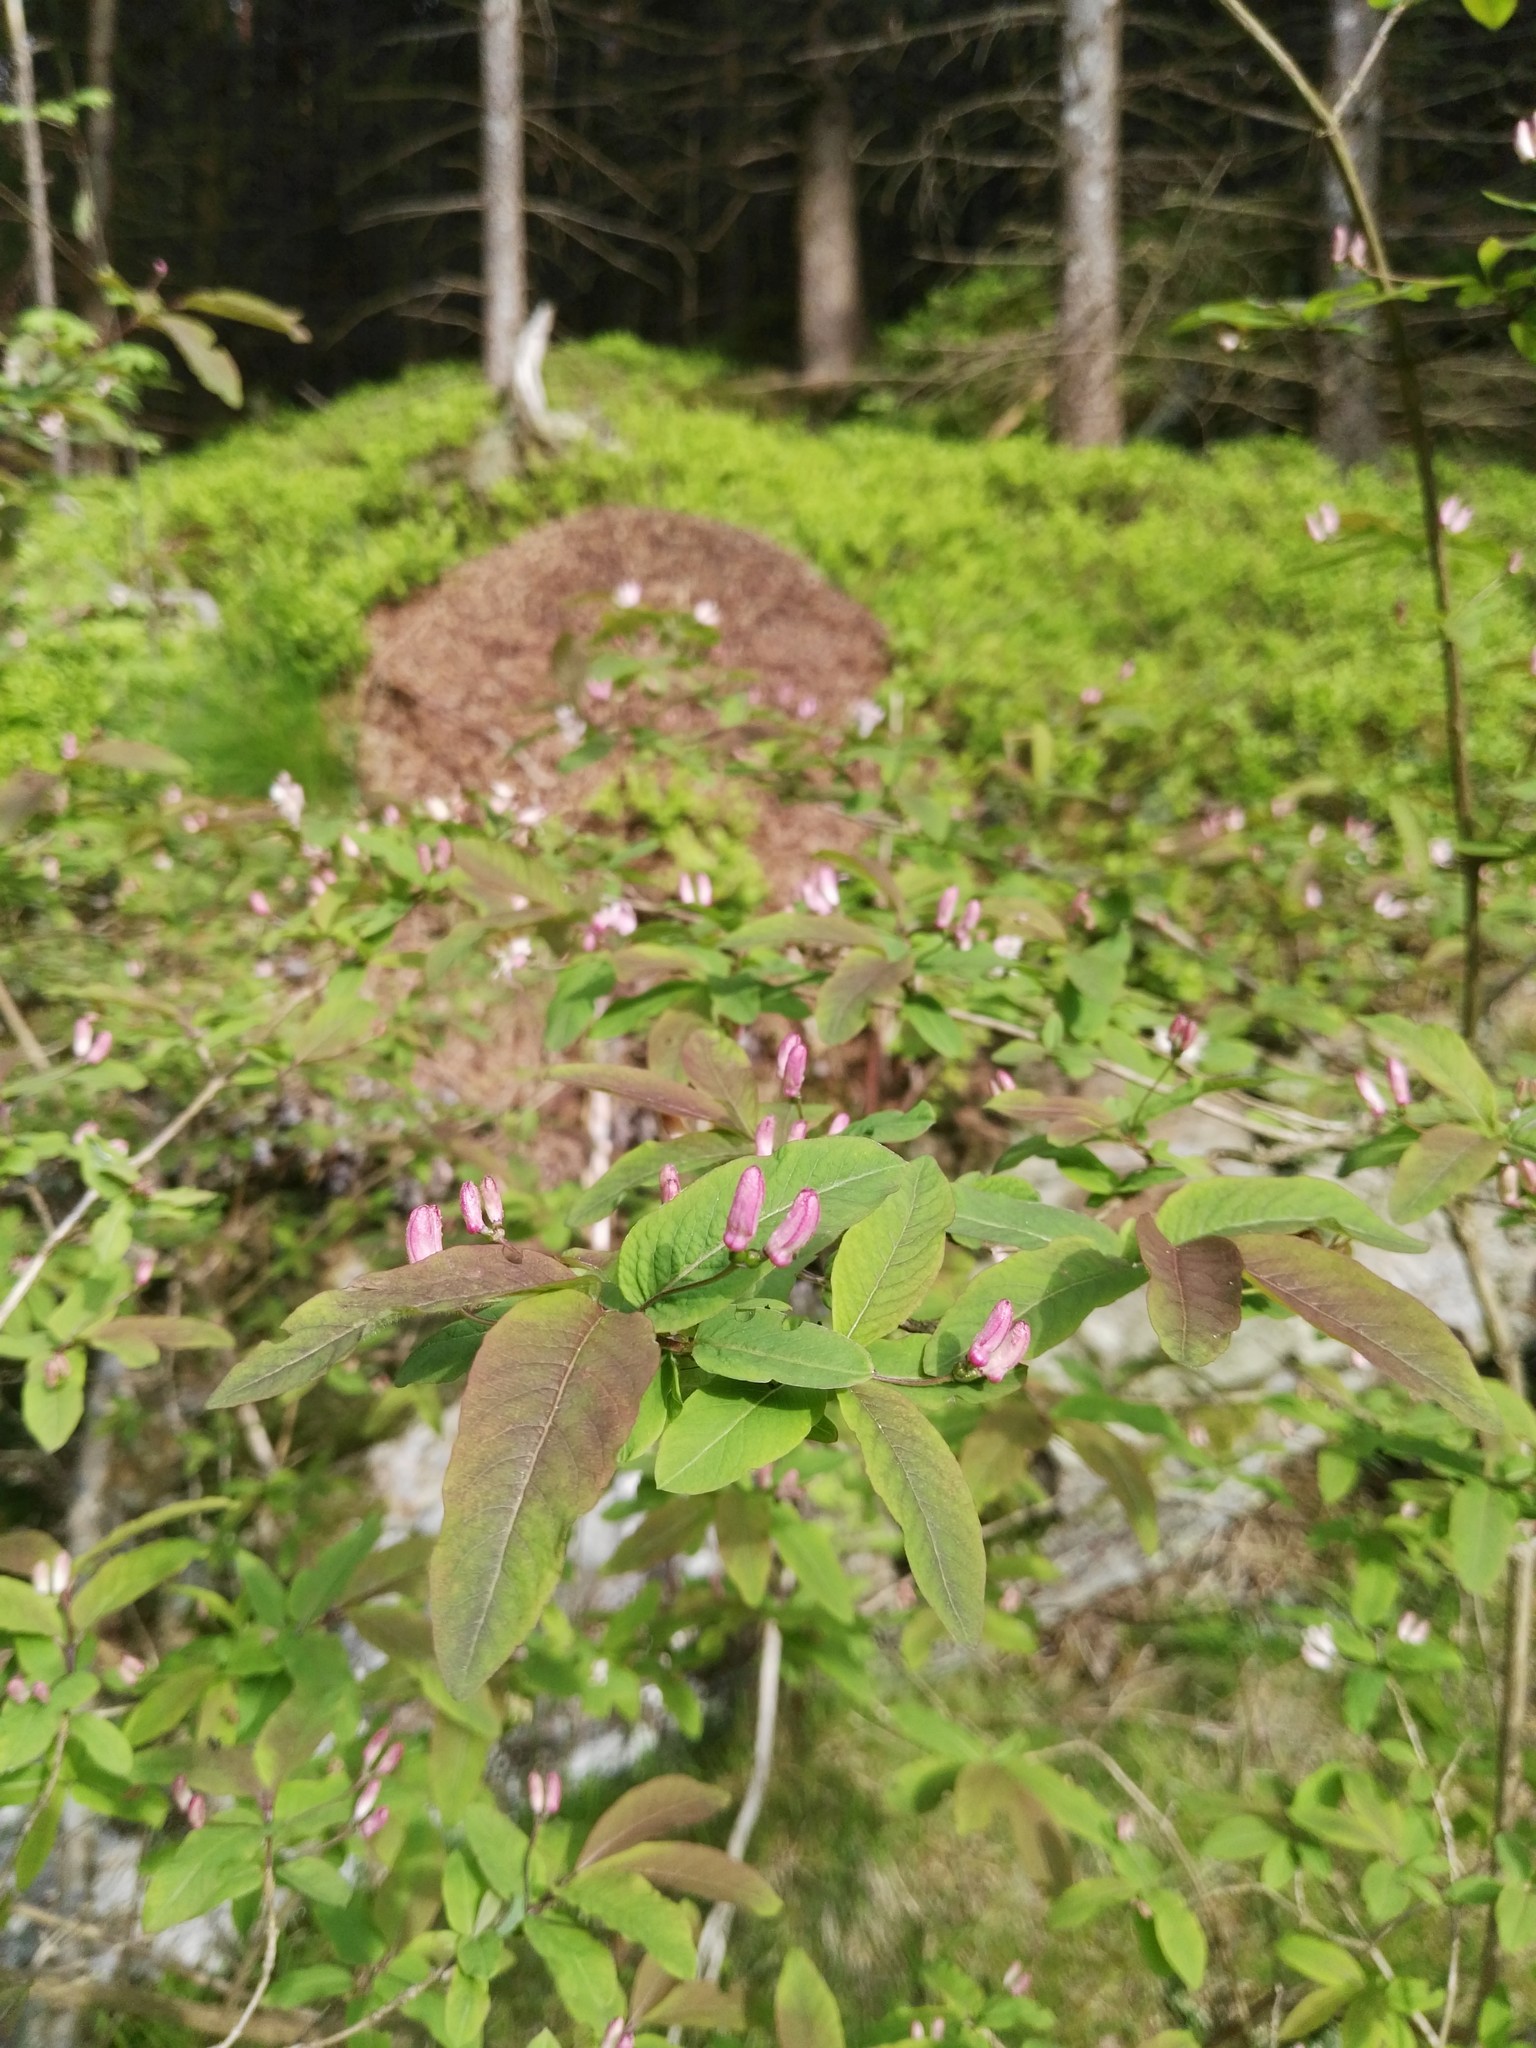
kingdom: Plantae
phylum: Tracheophyta
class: Magnoliopsida
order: Dipsacales
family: Caprifoliaceae
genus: Lonicera
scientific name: Lonicera nigra
